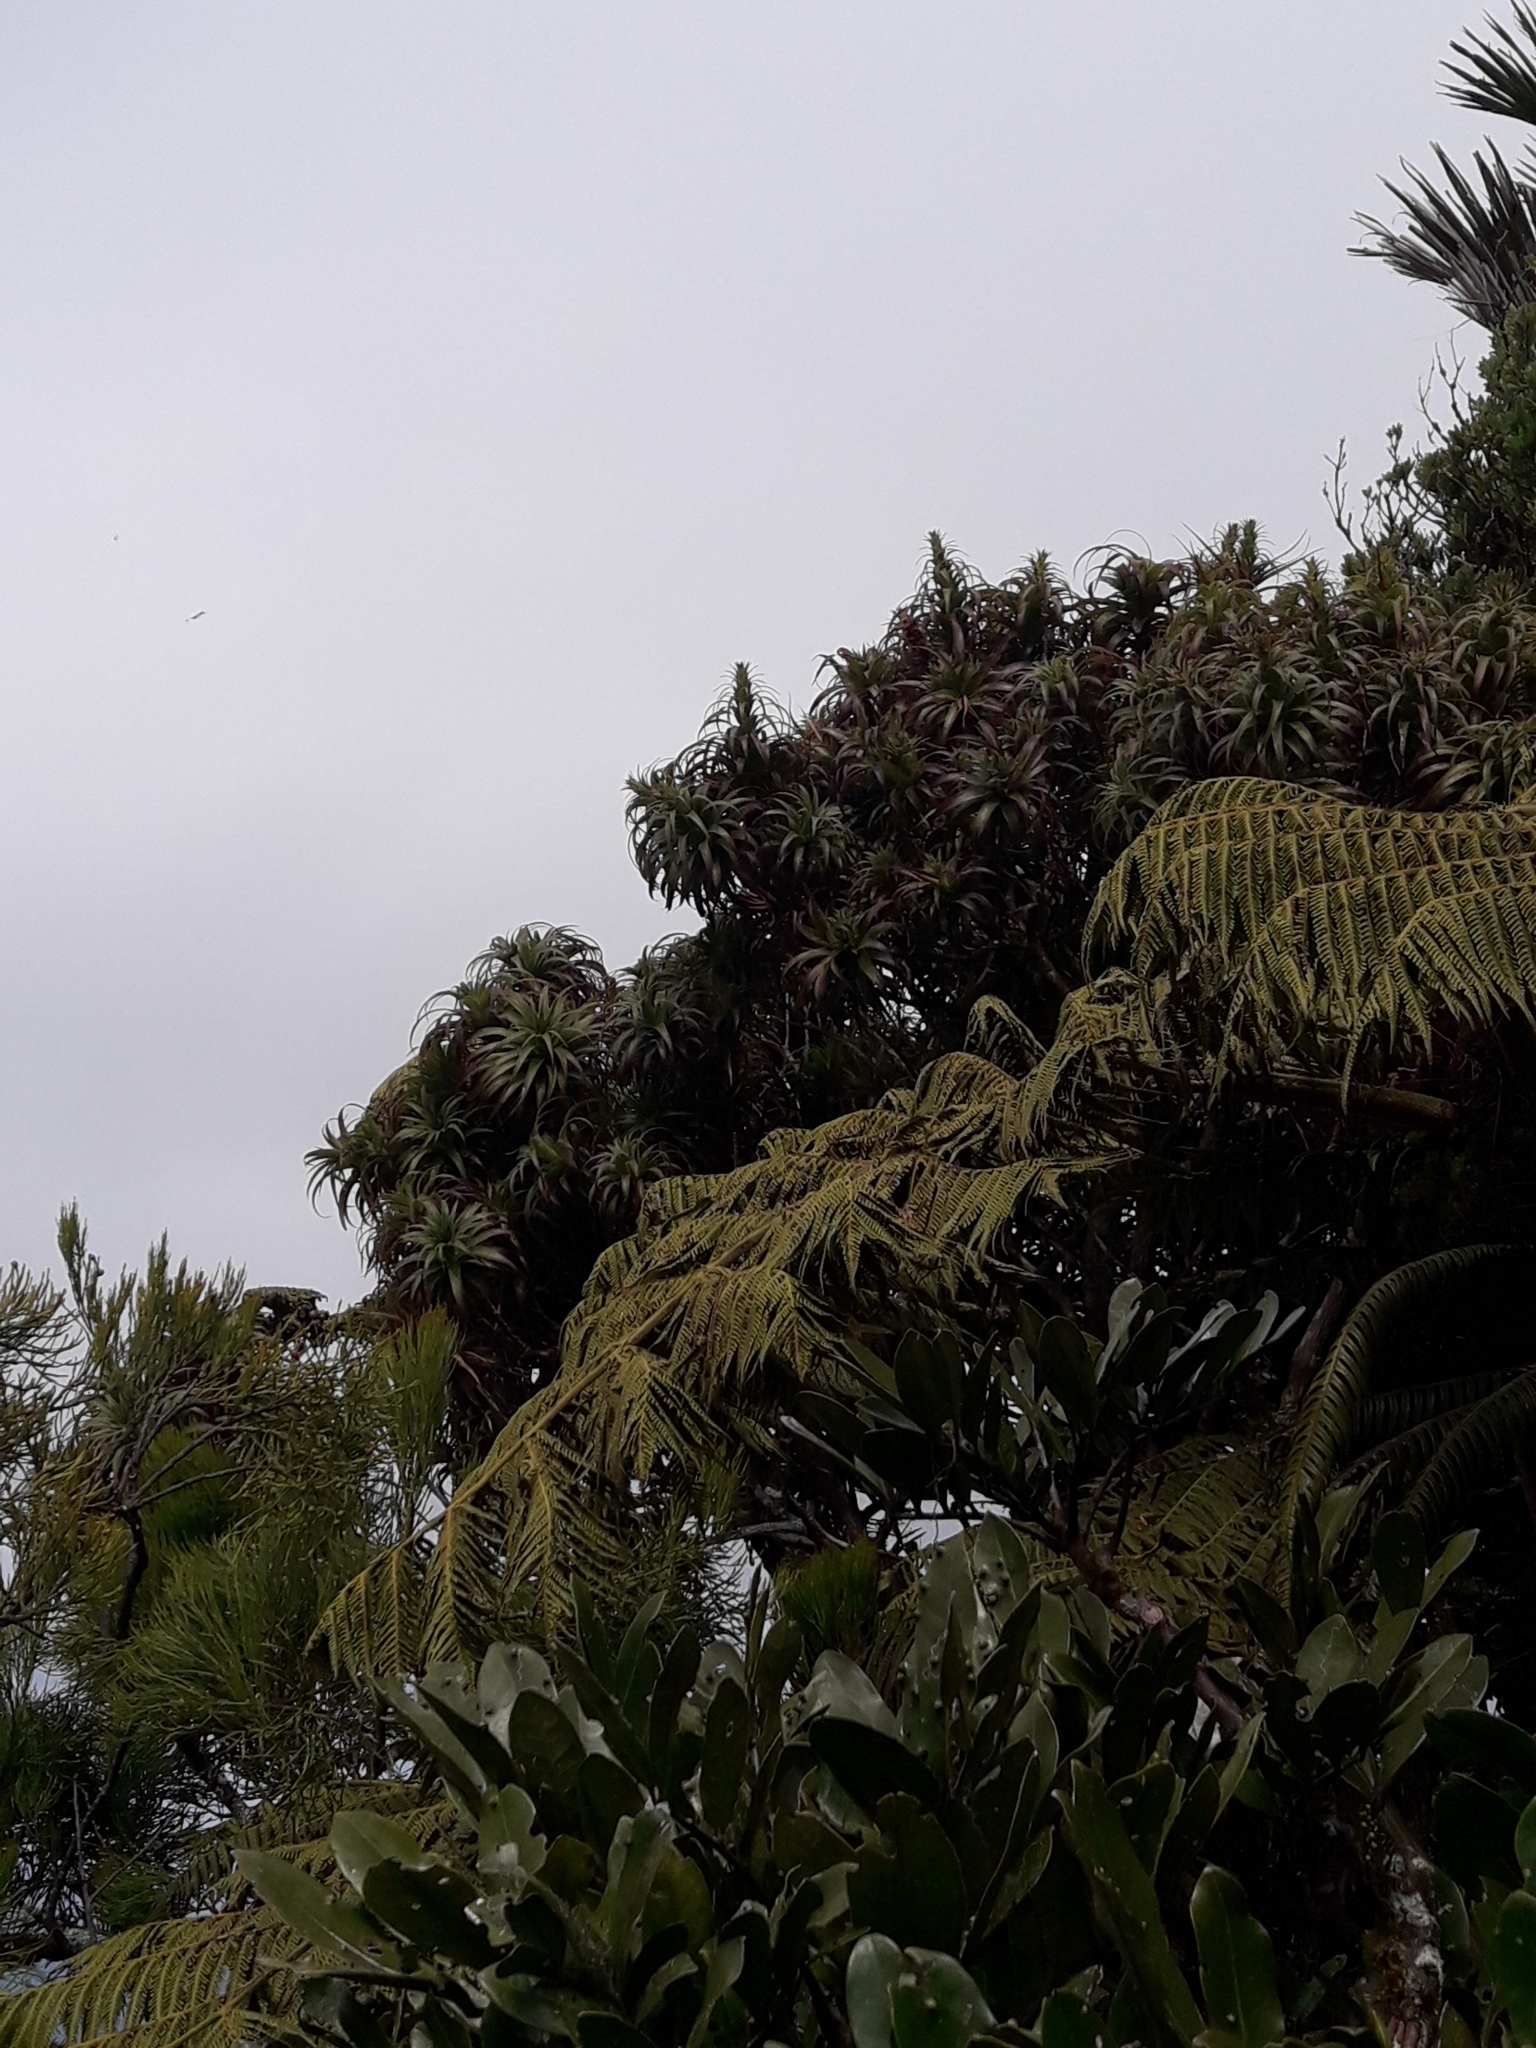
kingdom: Plantae
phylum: Tracheophyta
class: Magnoliopsida
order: Ericales
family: Ericaceae
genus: Dracophyllum
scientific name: Dracophyllum fitzgeraldii
